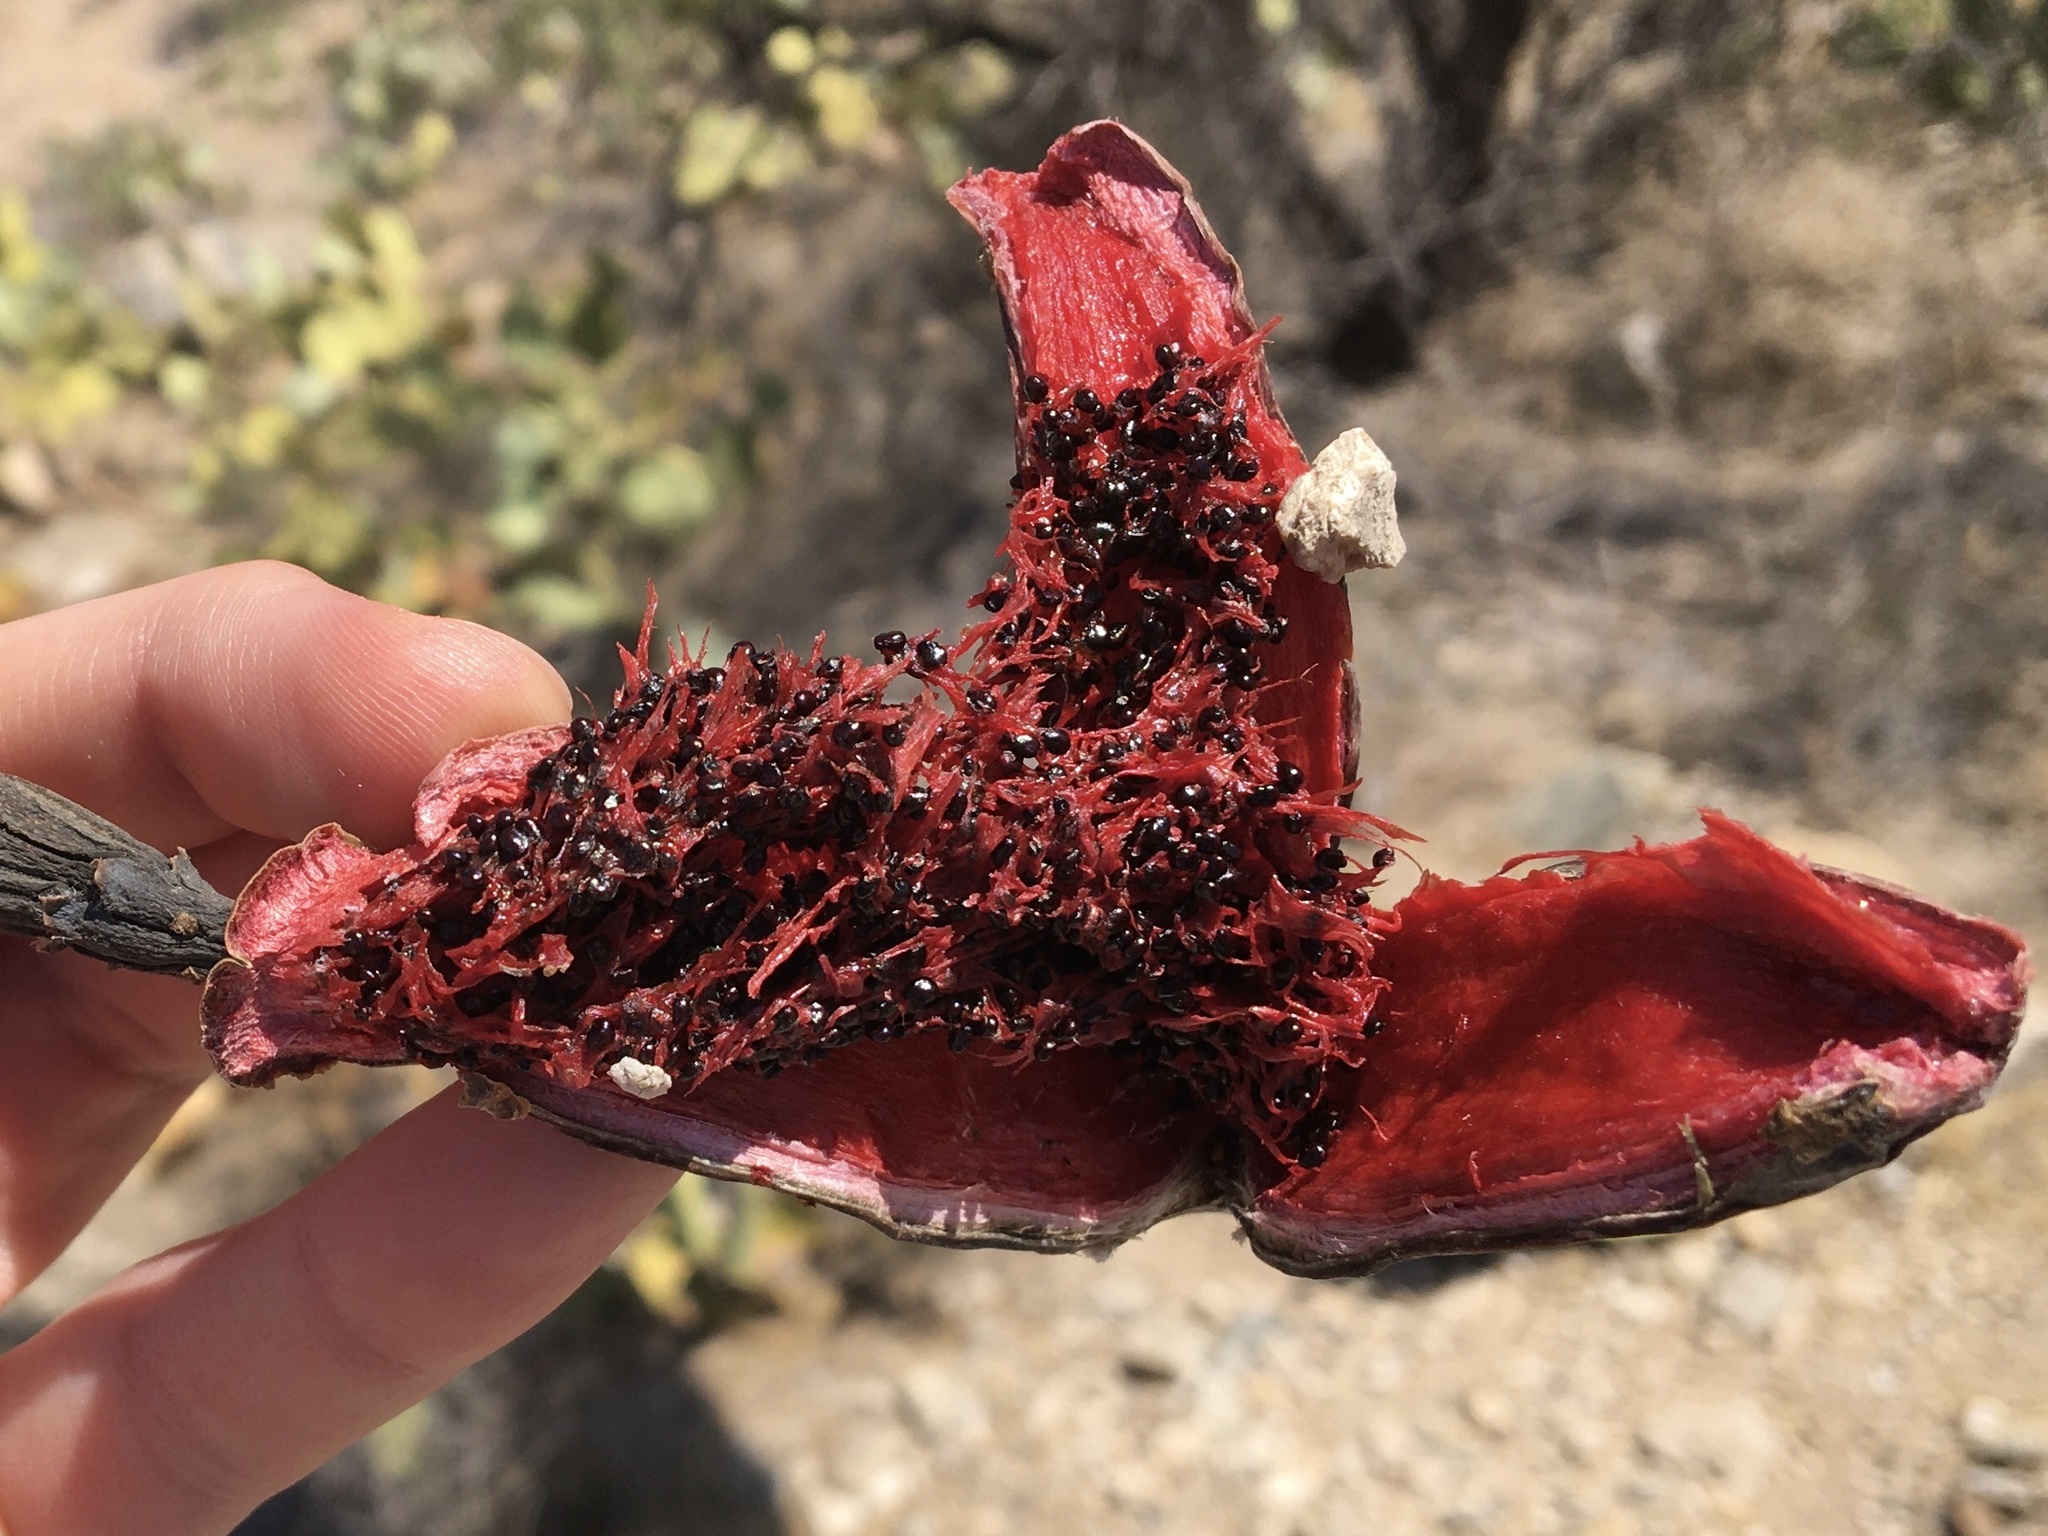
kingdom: Plantae
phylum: Tracheophyta
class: Magnoliopsida
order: Caryophyllales
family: Cactaceae
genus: Carnegiea
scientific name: Carnegiea gigantea
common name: Saguaro
